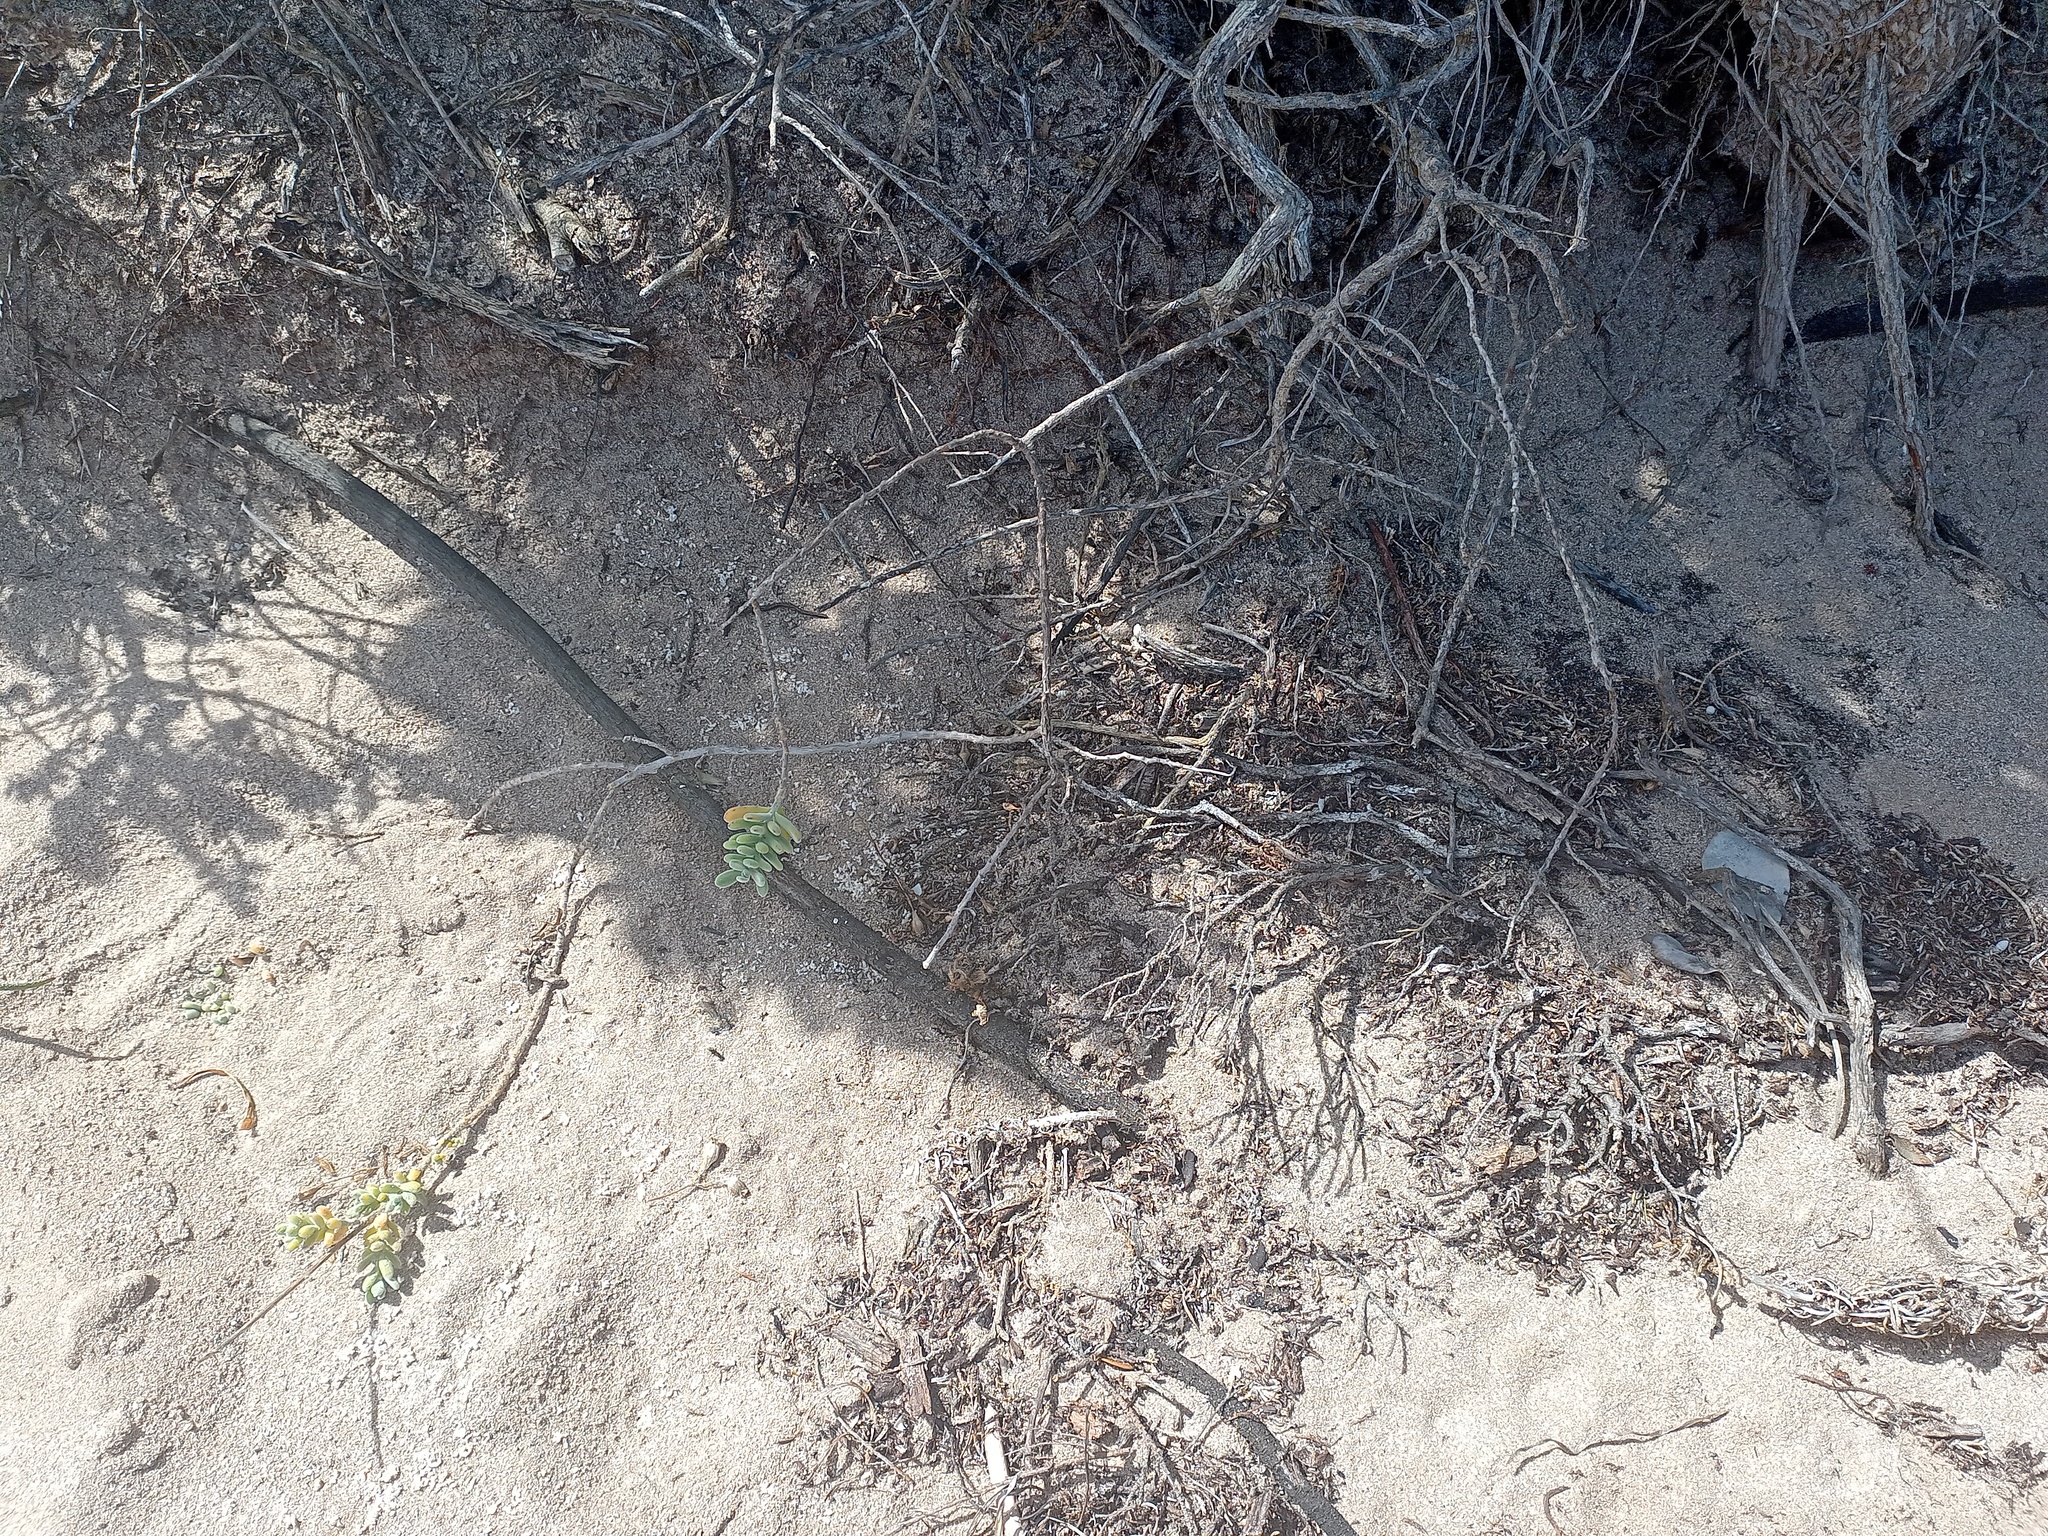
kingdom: Plantae
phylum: Tracheophyta
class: Magnoliopsida
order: Brassicales
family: Brassicaceae
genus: Heliophila
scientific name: Heliophila cinerea
